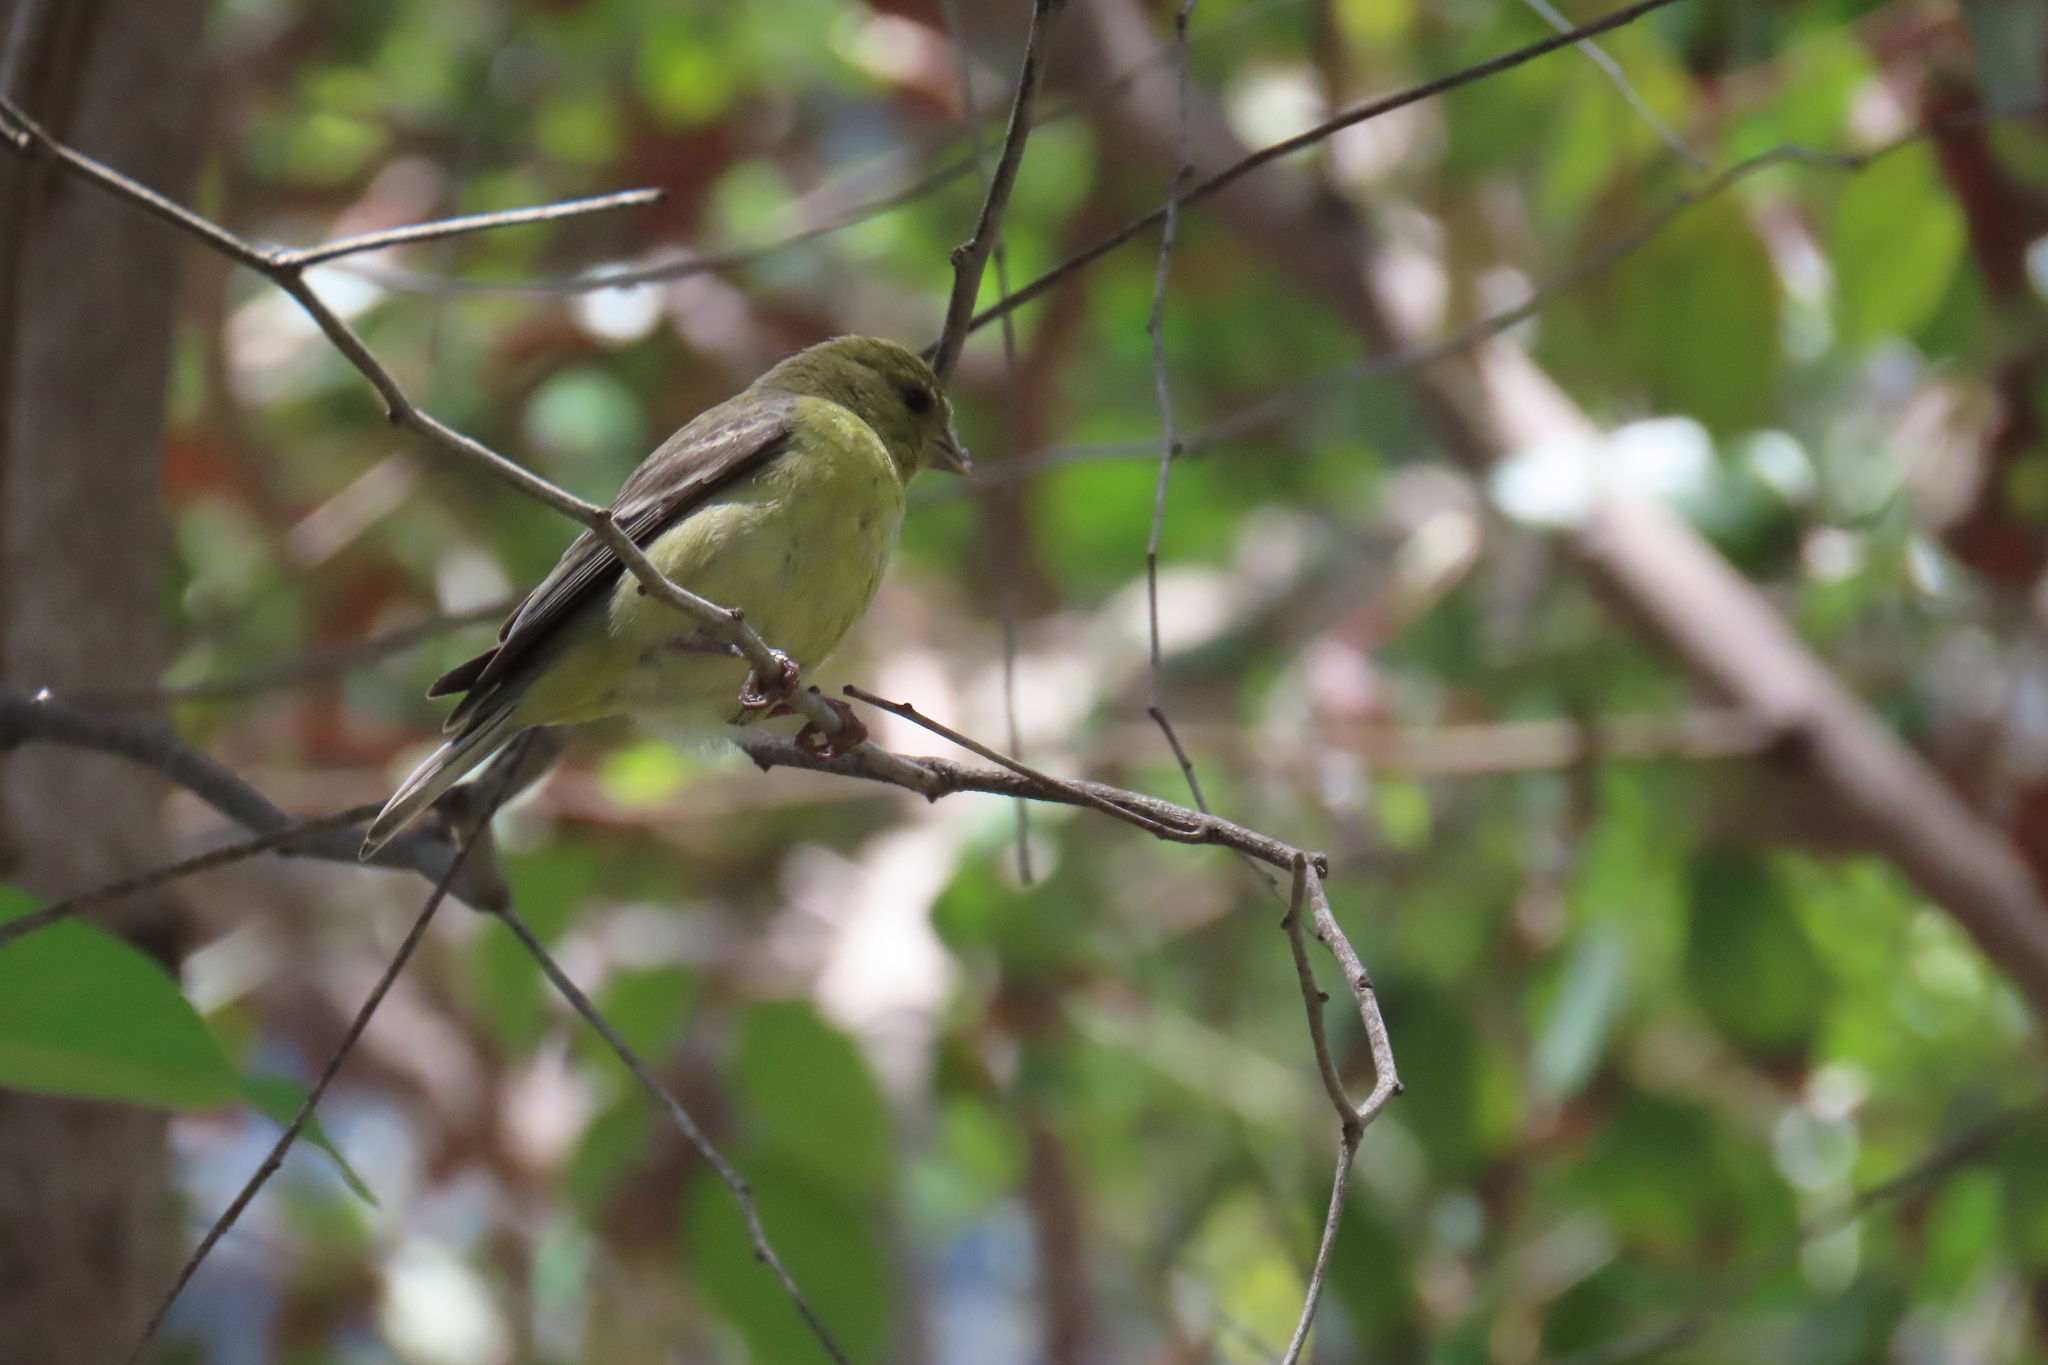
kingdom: Animalia
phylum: Chordata
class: Aves
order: Passeriformes
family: Fringillidae
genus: Spinus
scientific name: Spinus psaltria
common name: Lesser goldfinch
